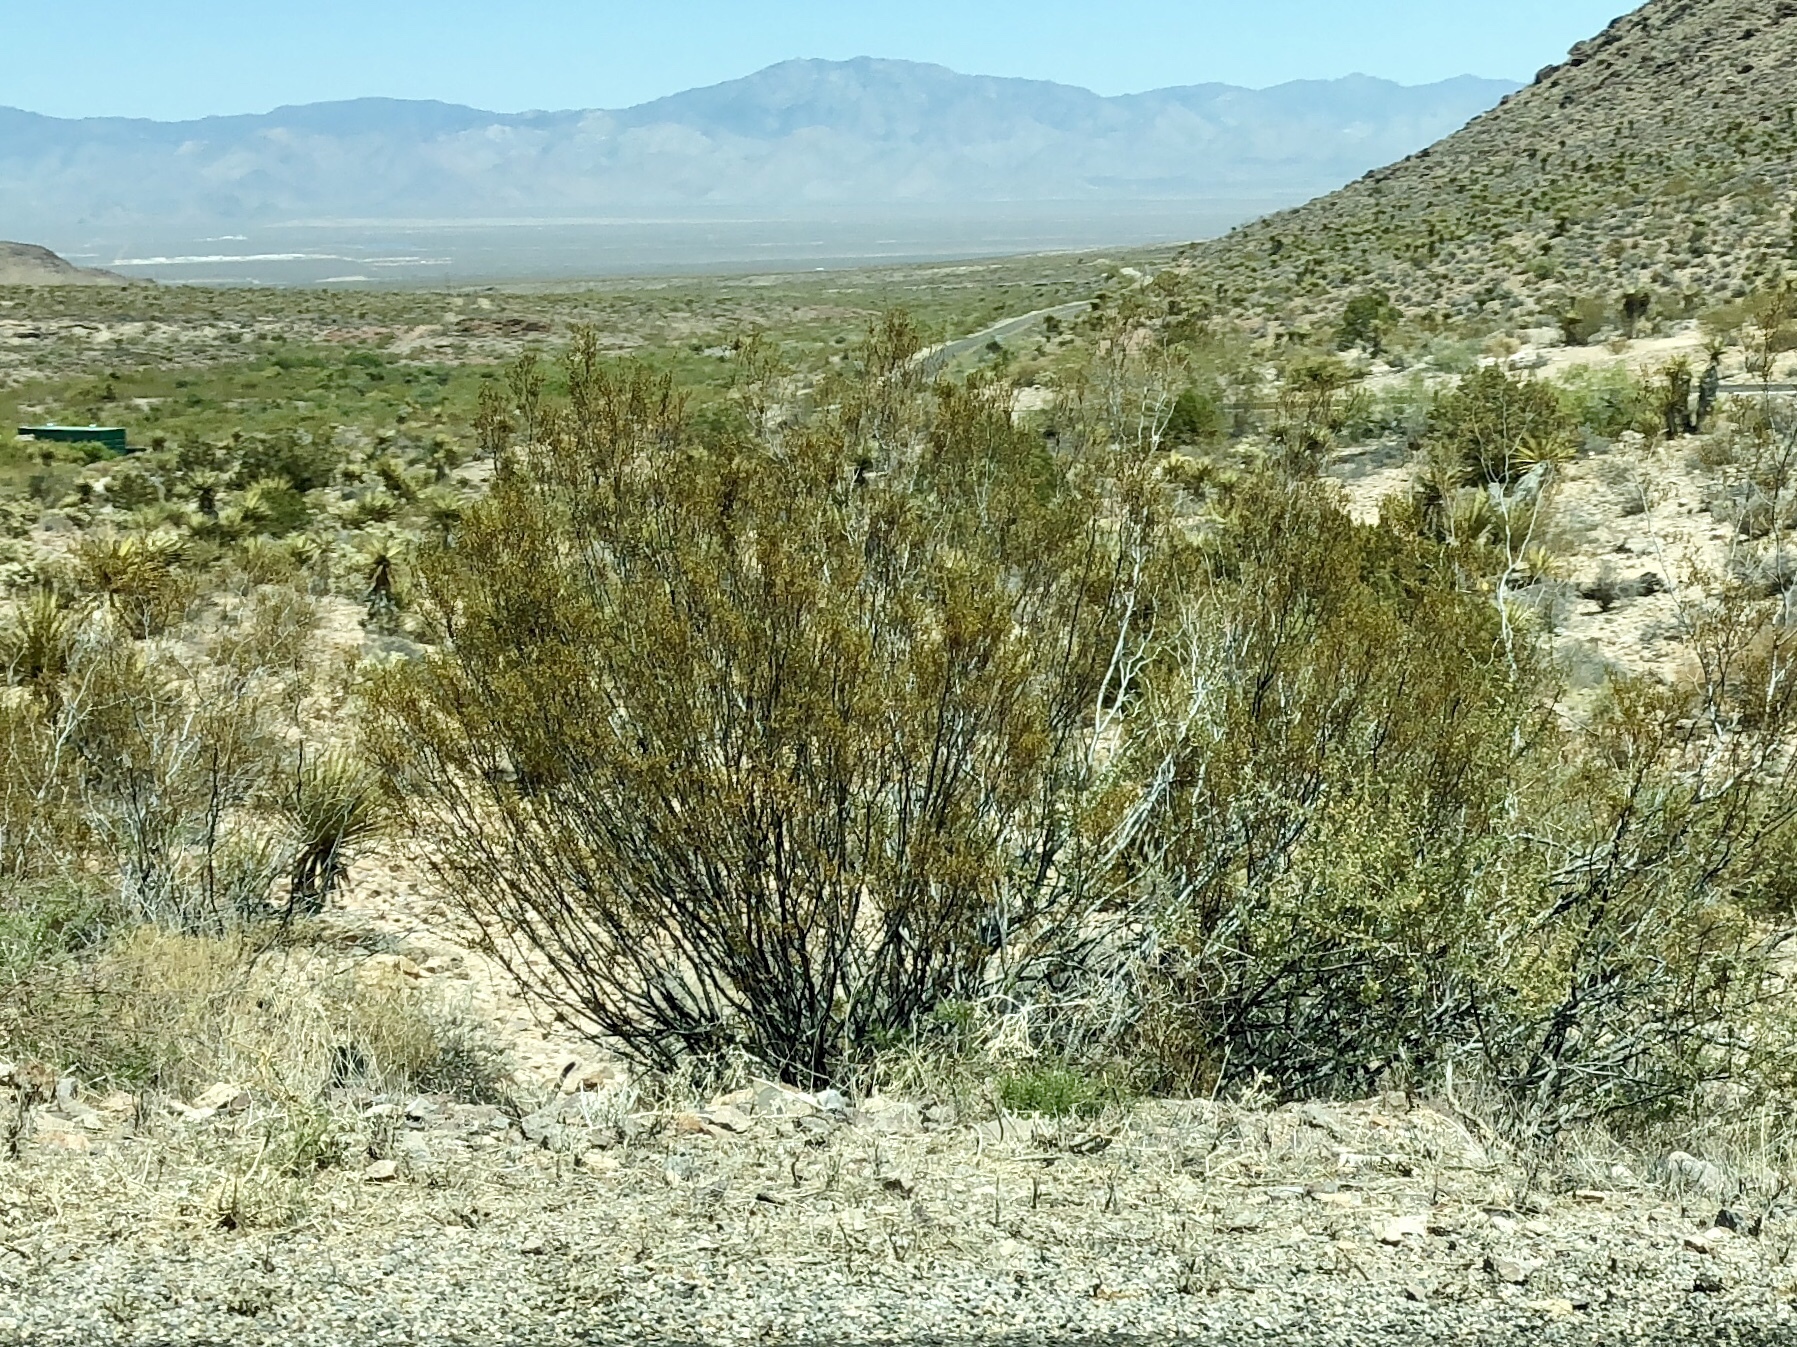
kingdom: Plantae
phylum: Tracheophyta
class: Magnoliopsida
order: Zygophyllales
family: Zygophyllaceae
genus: Larrea
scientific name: Larrea tridentata
